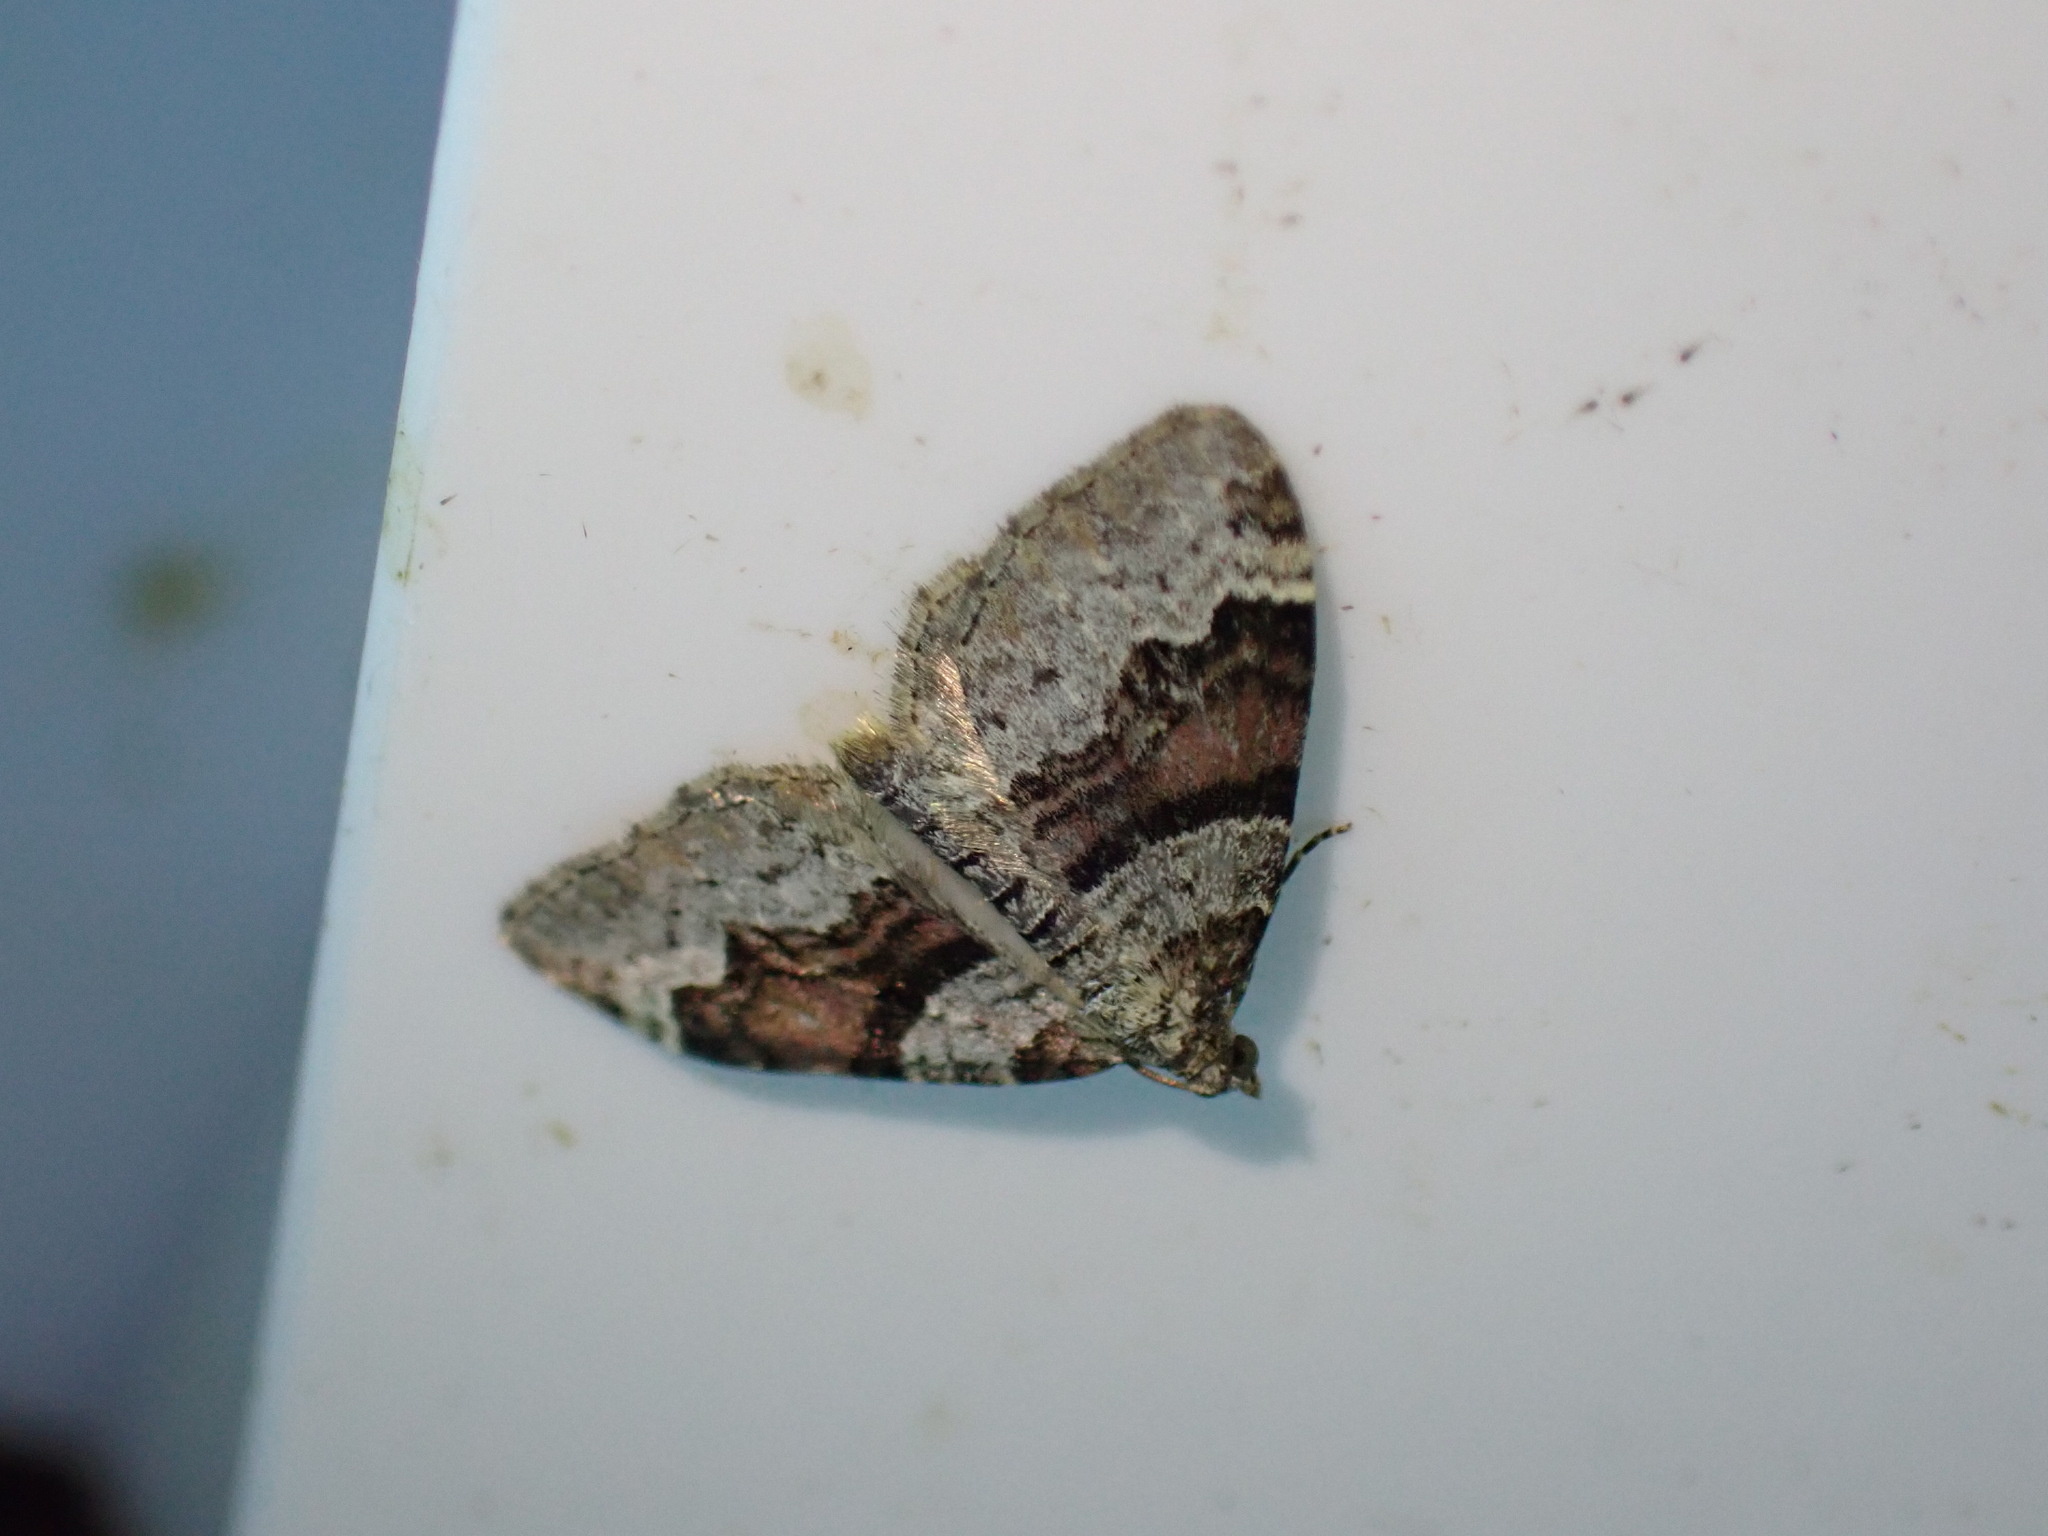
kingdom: Animalia
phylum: Arthropoda
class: Insecta
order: Lepidoptera
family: Geometridae
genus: Xanthorhoe
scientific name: Xanthorhoe designata
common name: Flame carpet
